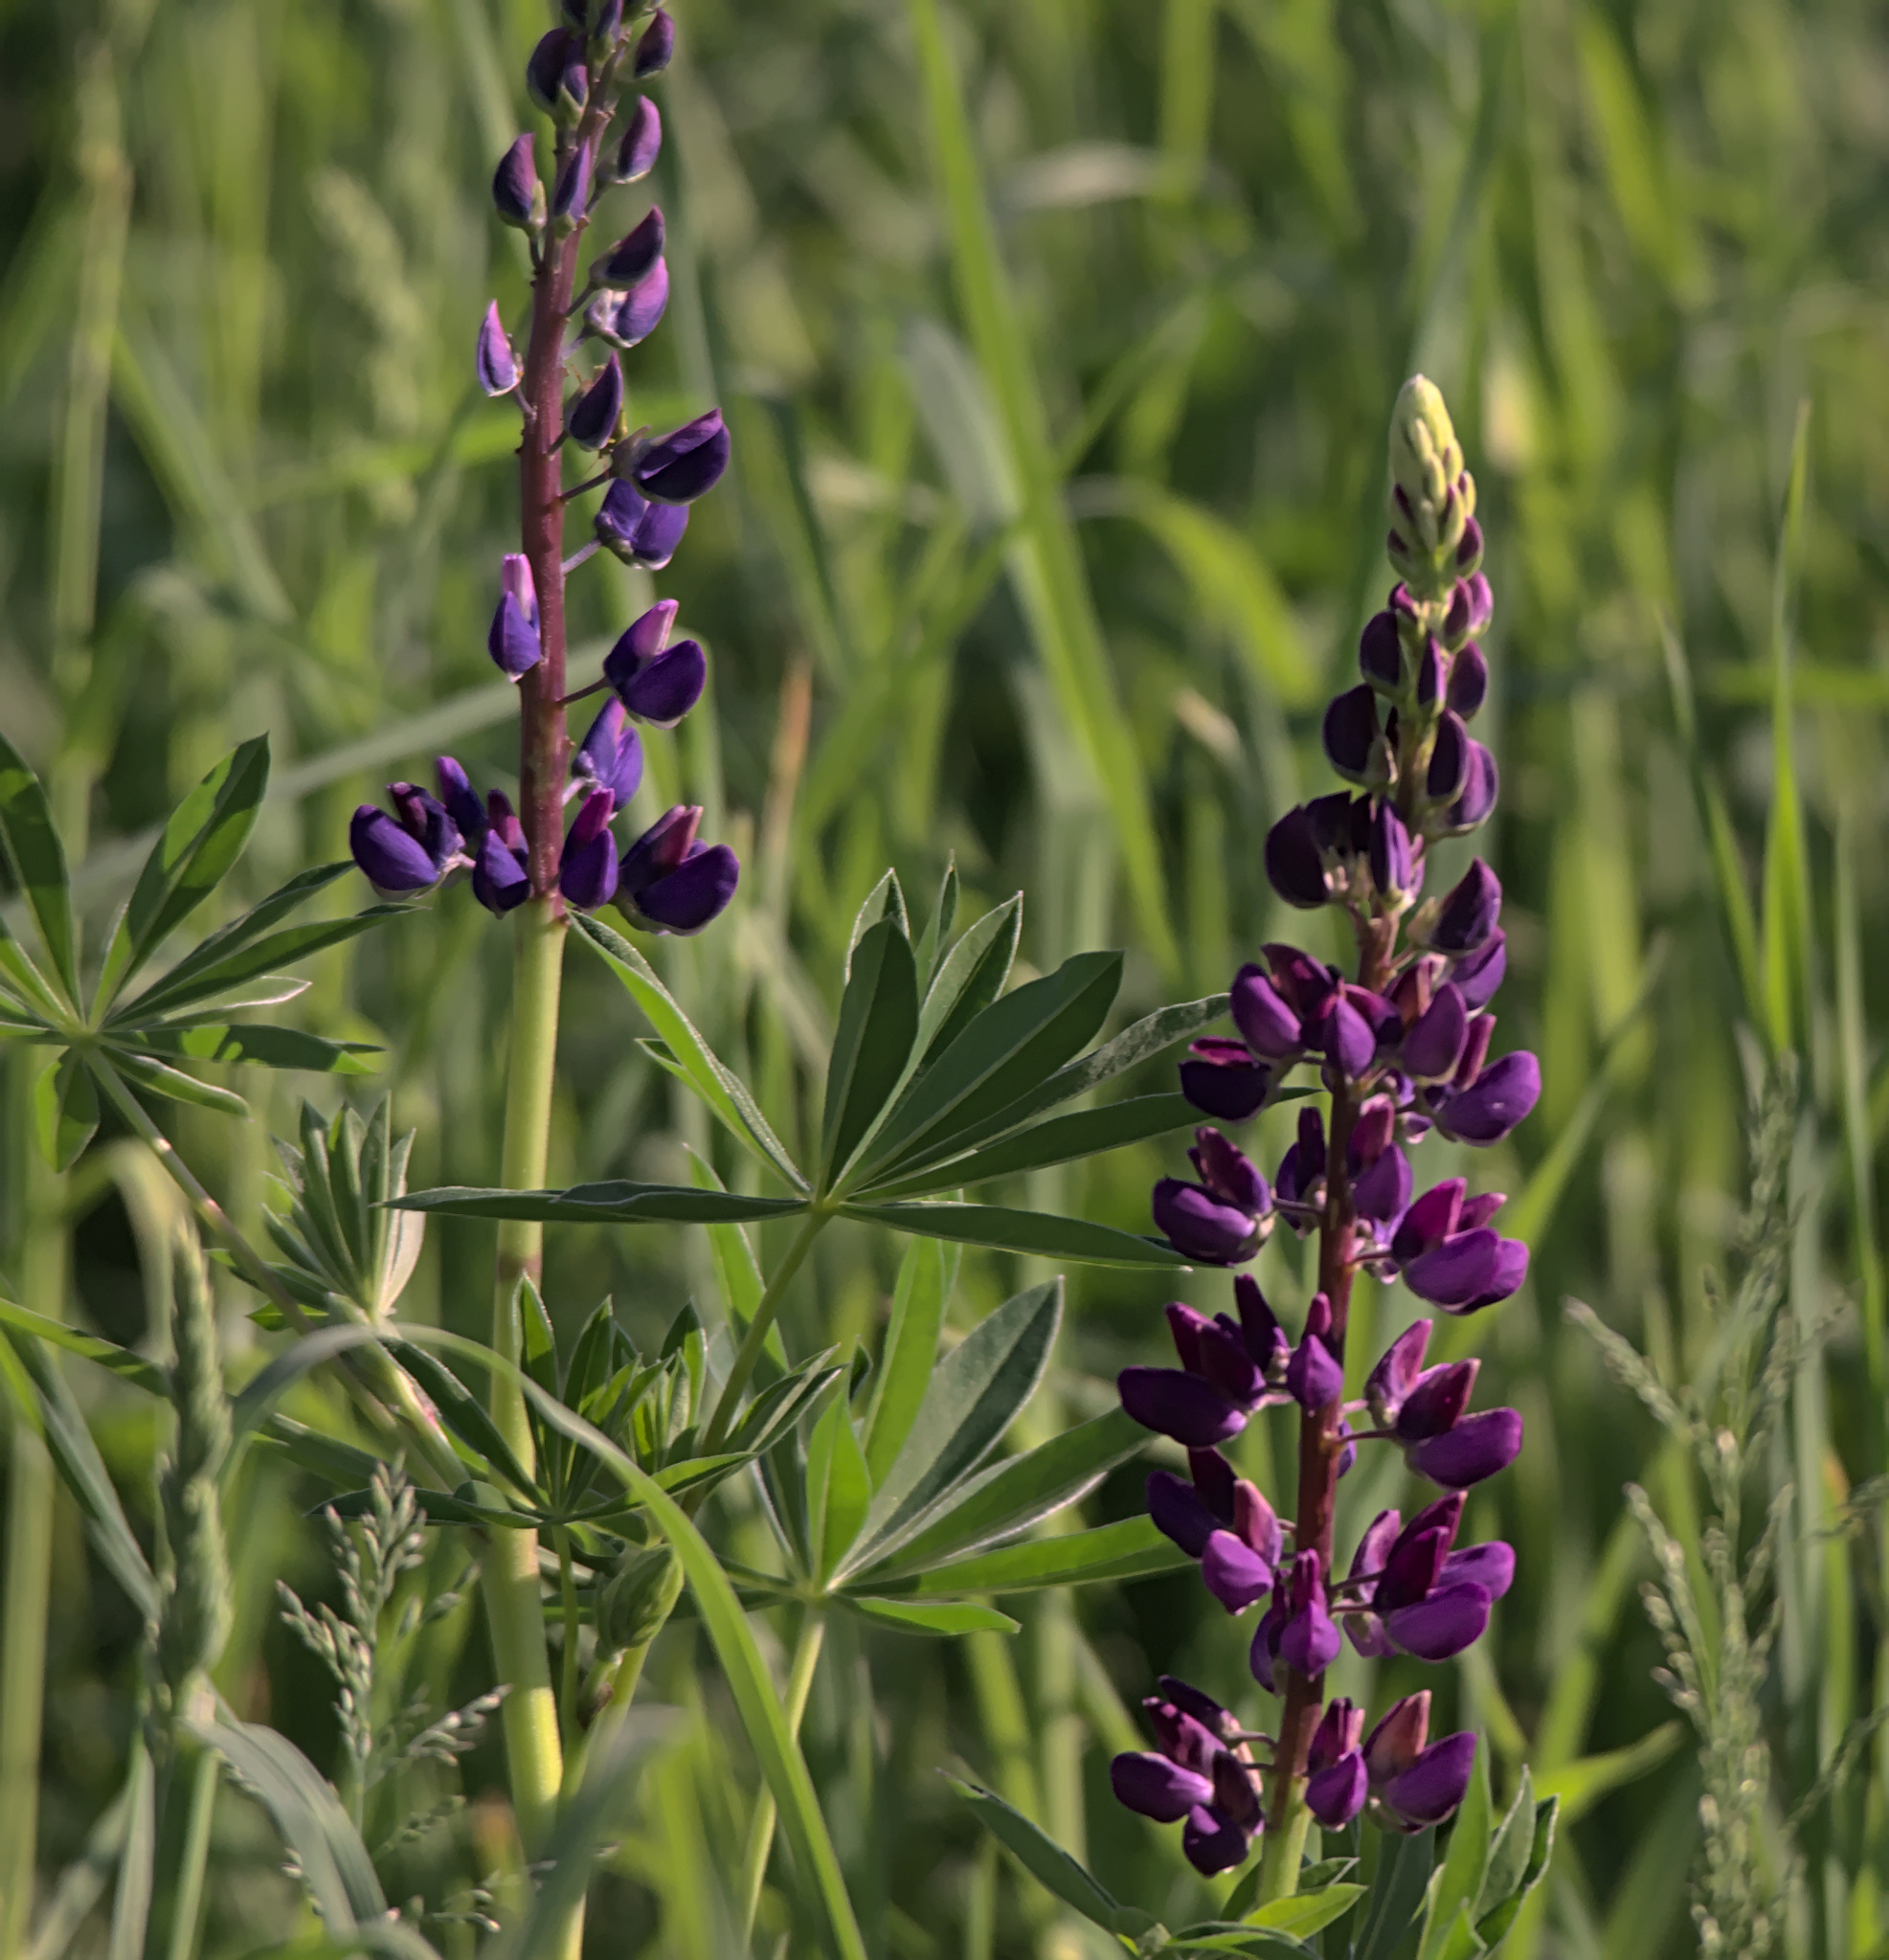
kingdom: Plantae
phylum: Tracheophyta
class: Magnoliopsida
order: Fabales
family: Fabaceae
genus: Lupinus
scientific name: Lupinus polyphyllus
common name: Garden lupin
